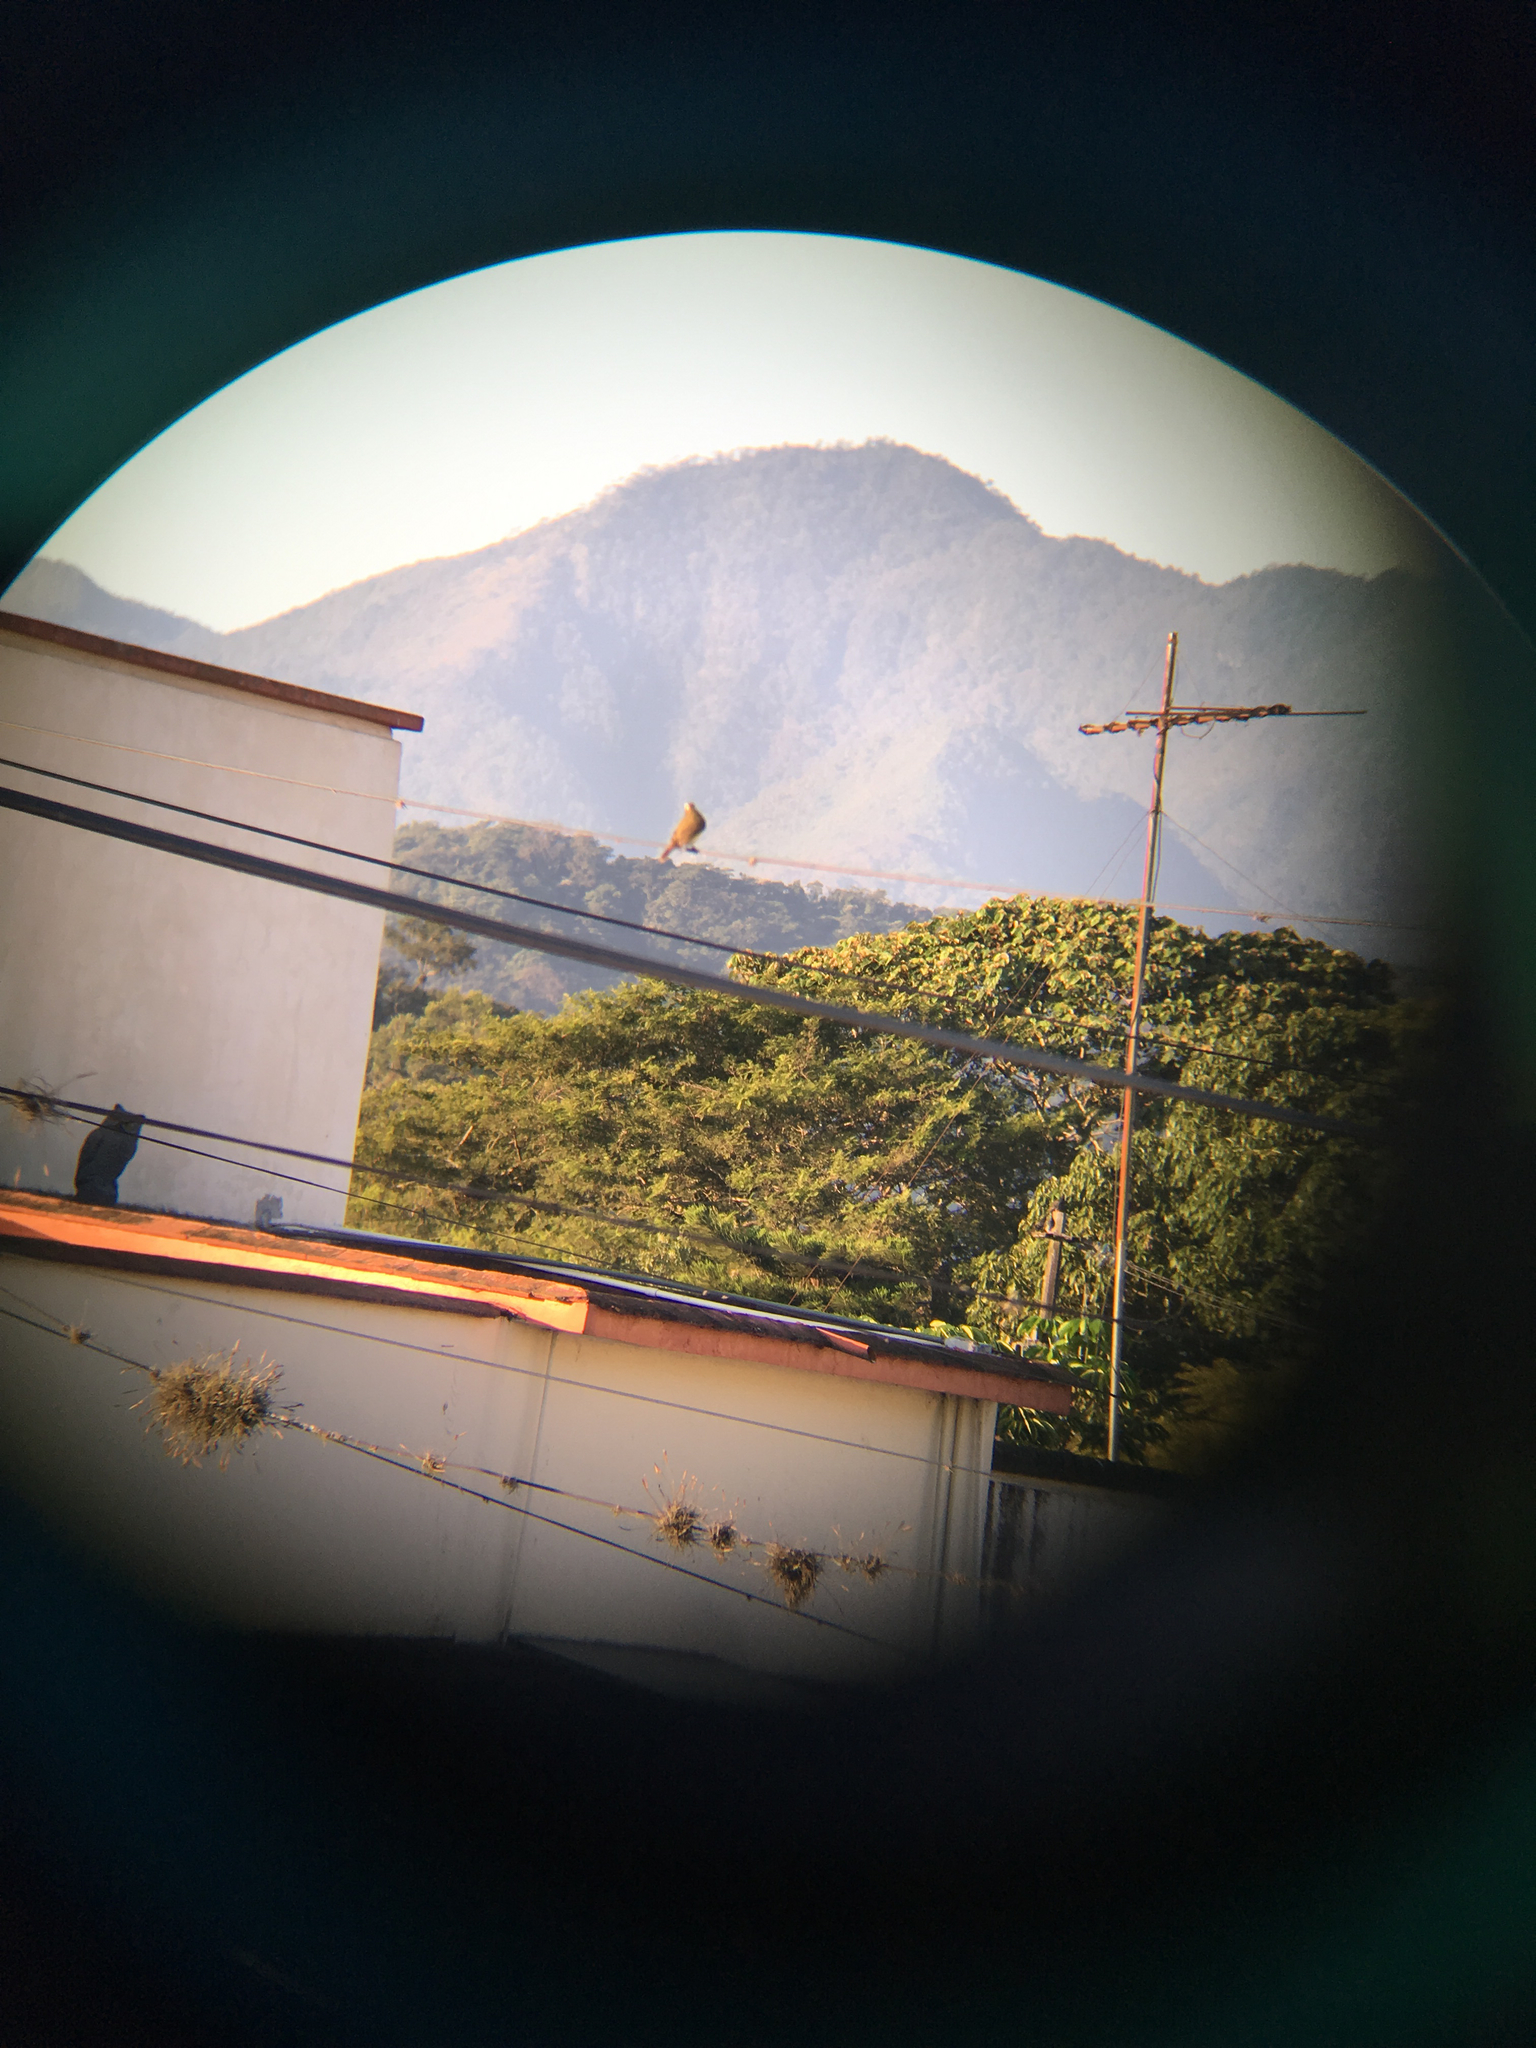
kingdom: Animalia
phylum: Chordata
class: Aves
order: Passeriformes
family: Tyrannidae
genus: Megarynchus
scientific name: Megarynchus pitangua
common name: Boat-billed flycatcher
